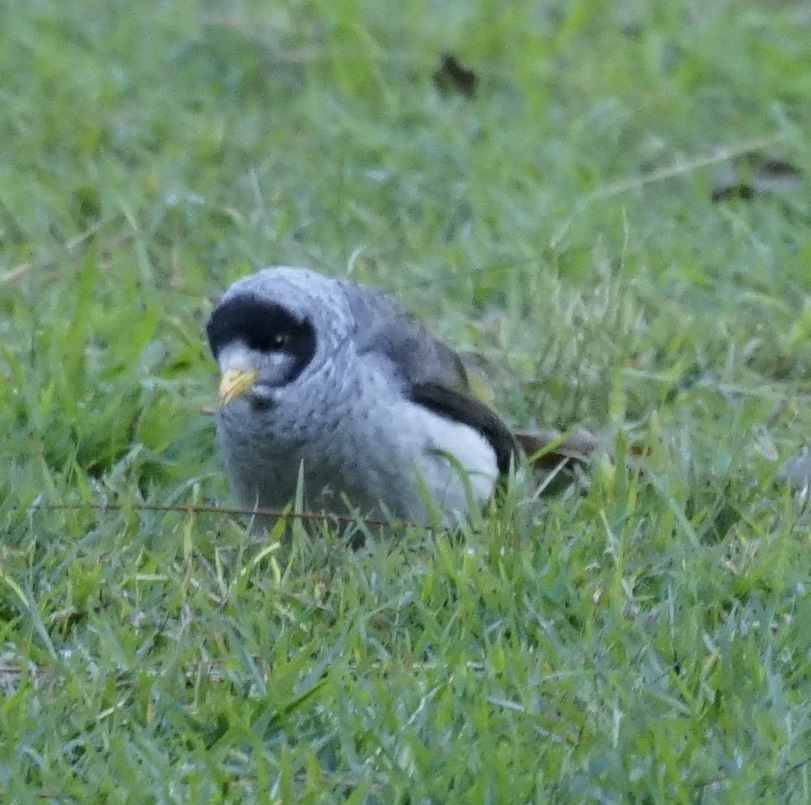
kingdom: Animalia
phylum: Chordata
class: Aves
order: Passeriformes
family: Meliphagidae
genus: Manorina
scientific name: Manorina melanocephala
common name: Noisy miner
